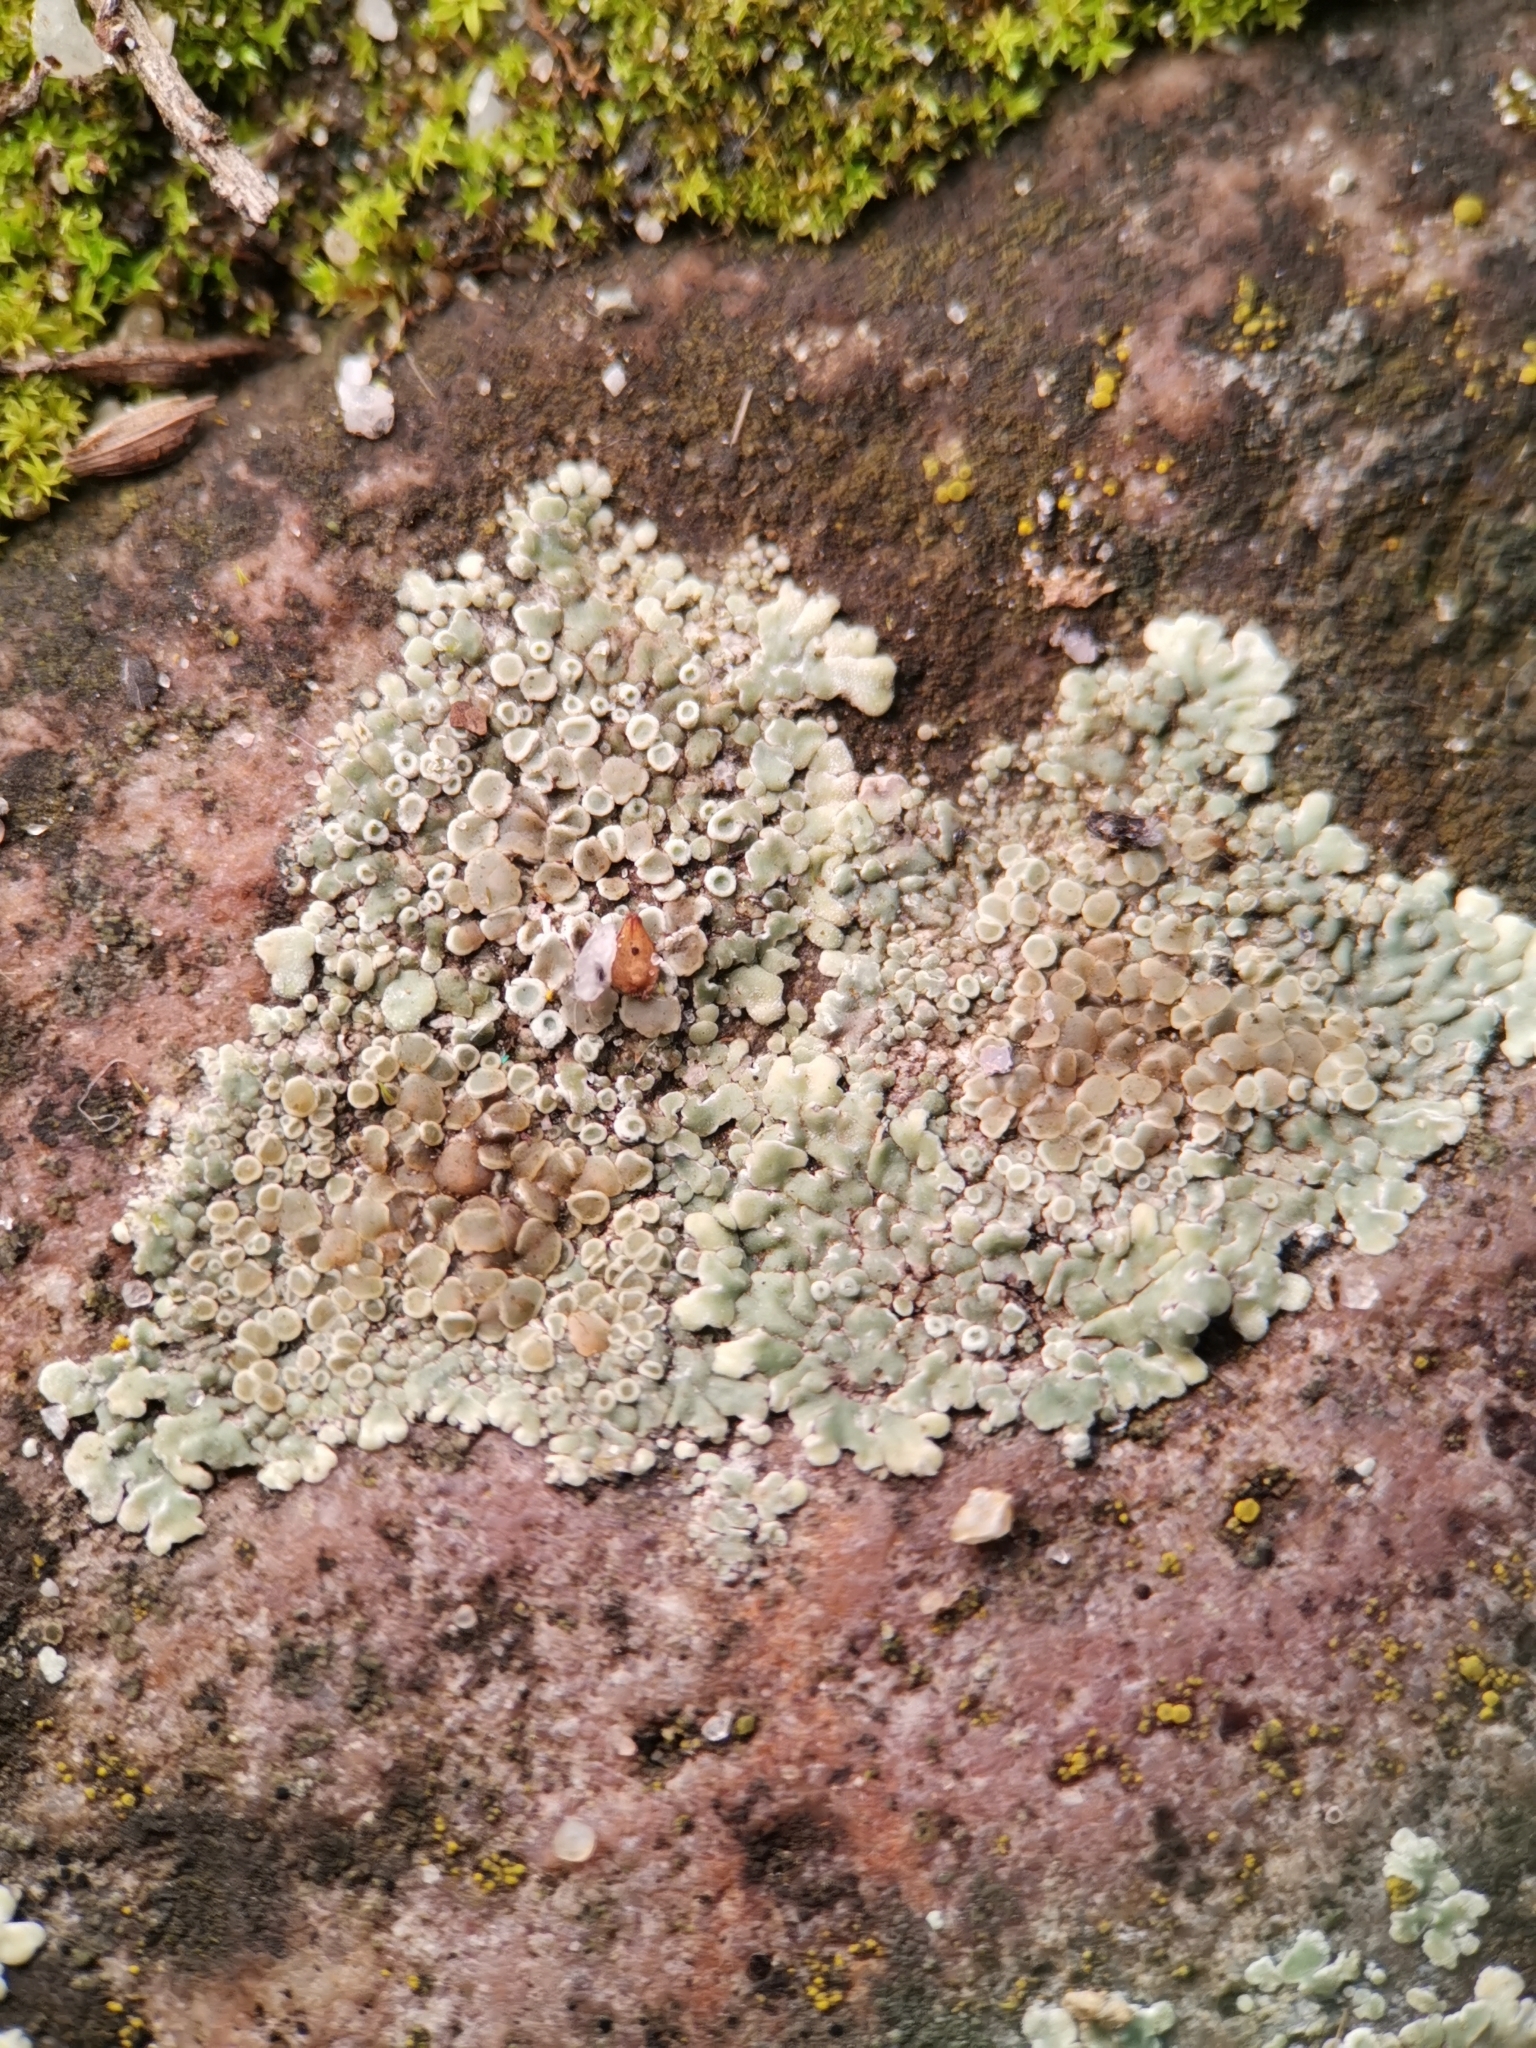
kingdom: Fungi
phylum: Ascomycota
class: Lecanoromycetes
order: Lecanorales
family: Lecanoraceae
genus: Protoparmeliopsis
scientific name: Protoparmeliopsis muralis
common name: Stonewall rim lichen
